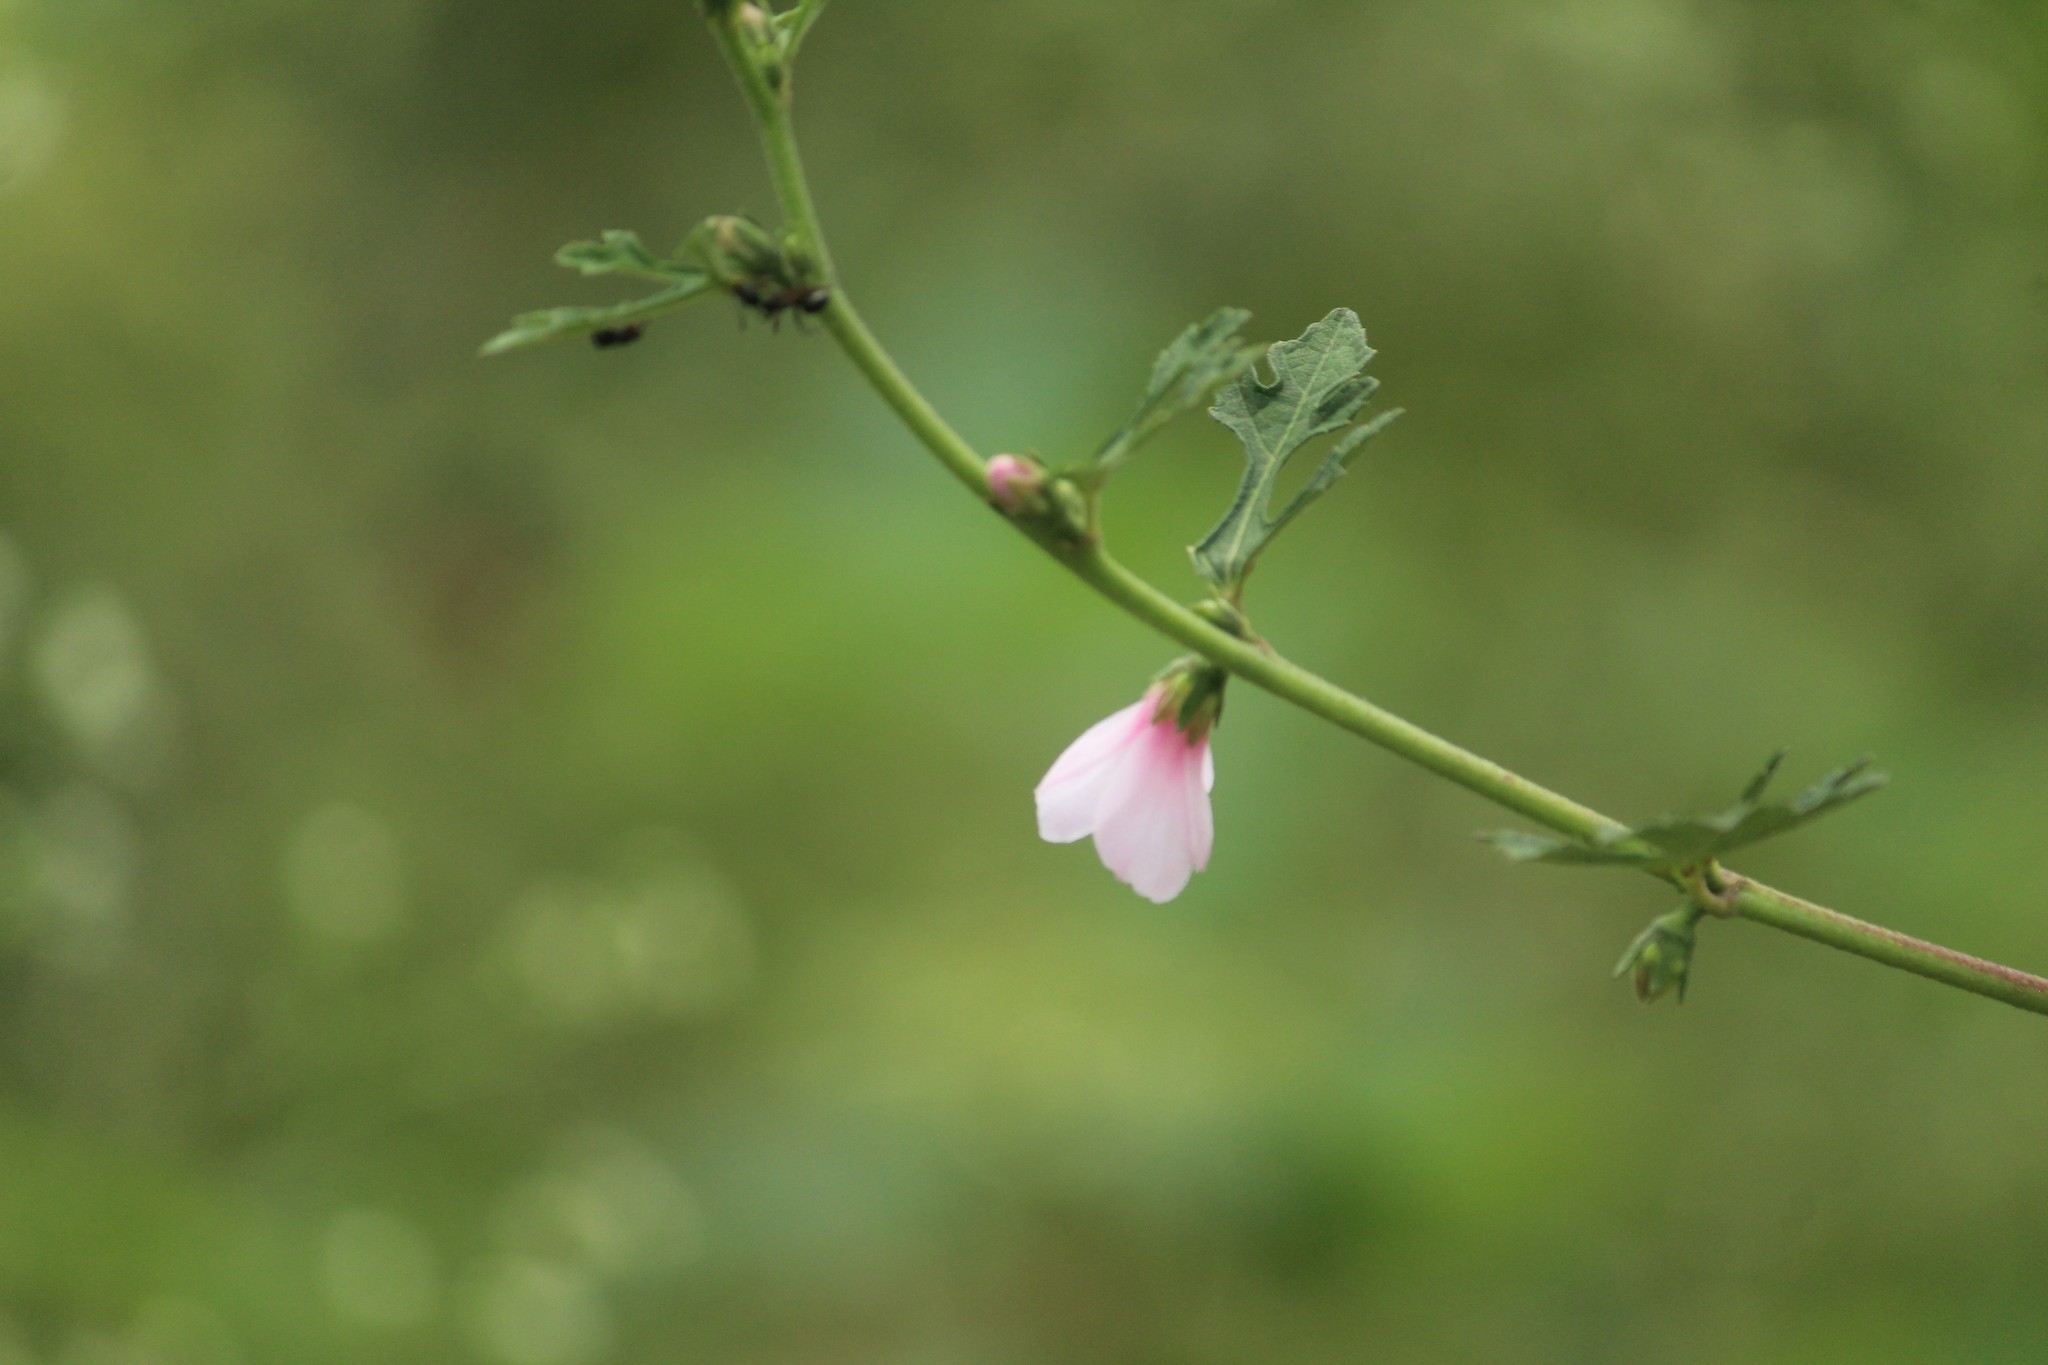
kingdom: Plantae
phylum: Tracheophyta
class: Magnoliopsida
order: Malvales
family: Malvaceae
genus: Urena
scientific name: Urena lobata
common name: Caesarweed
